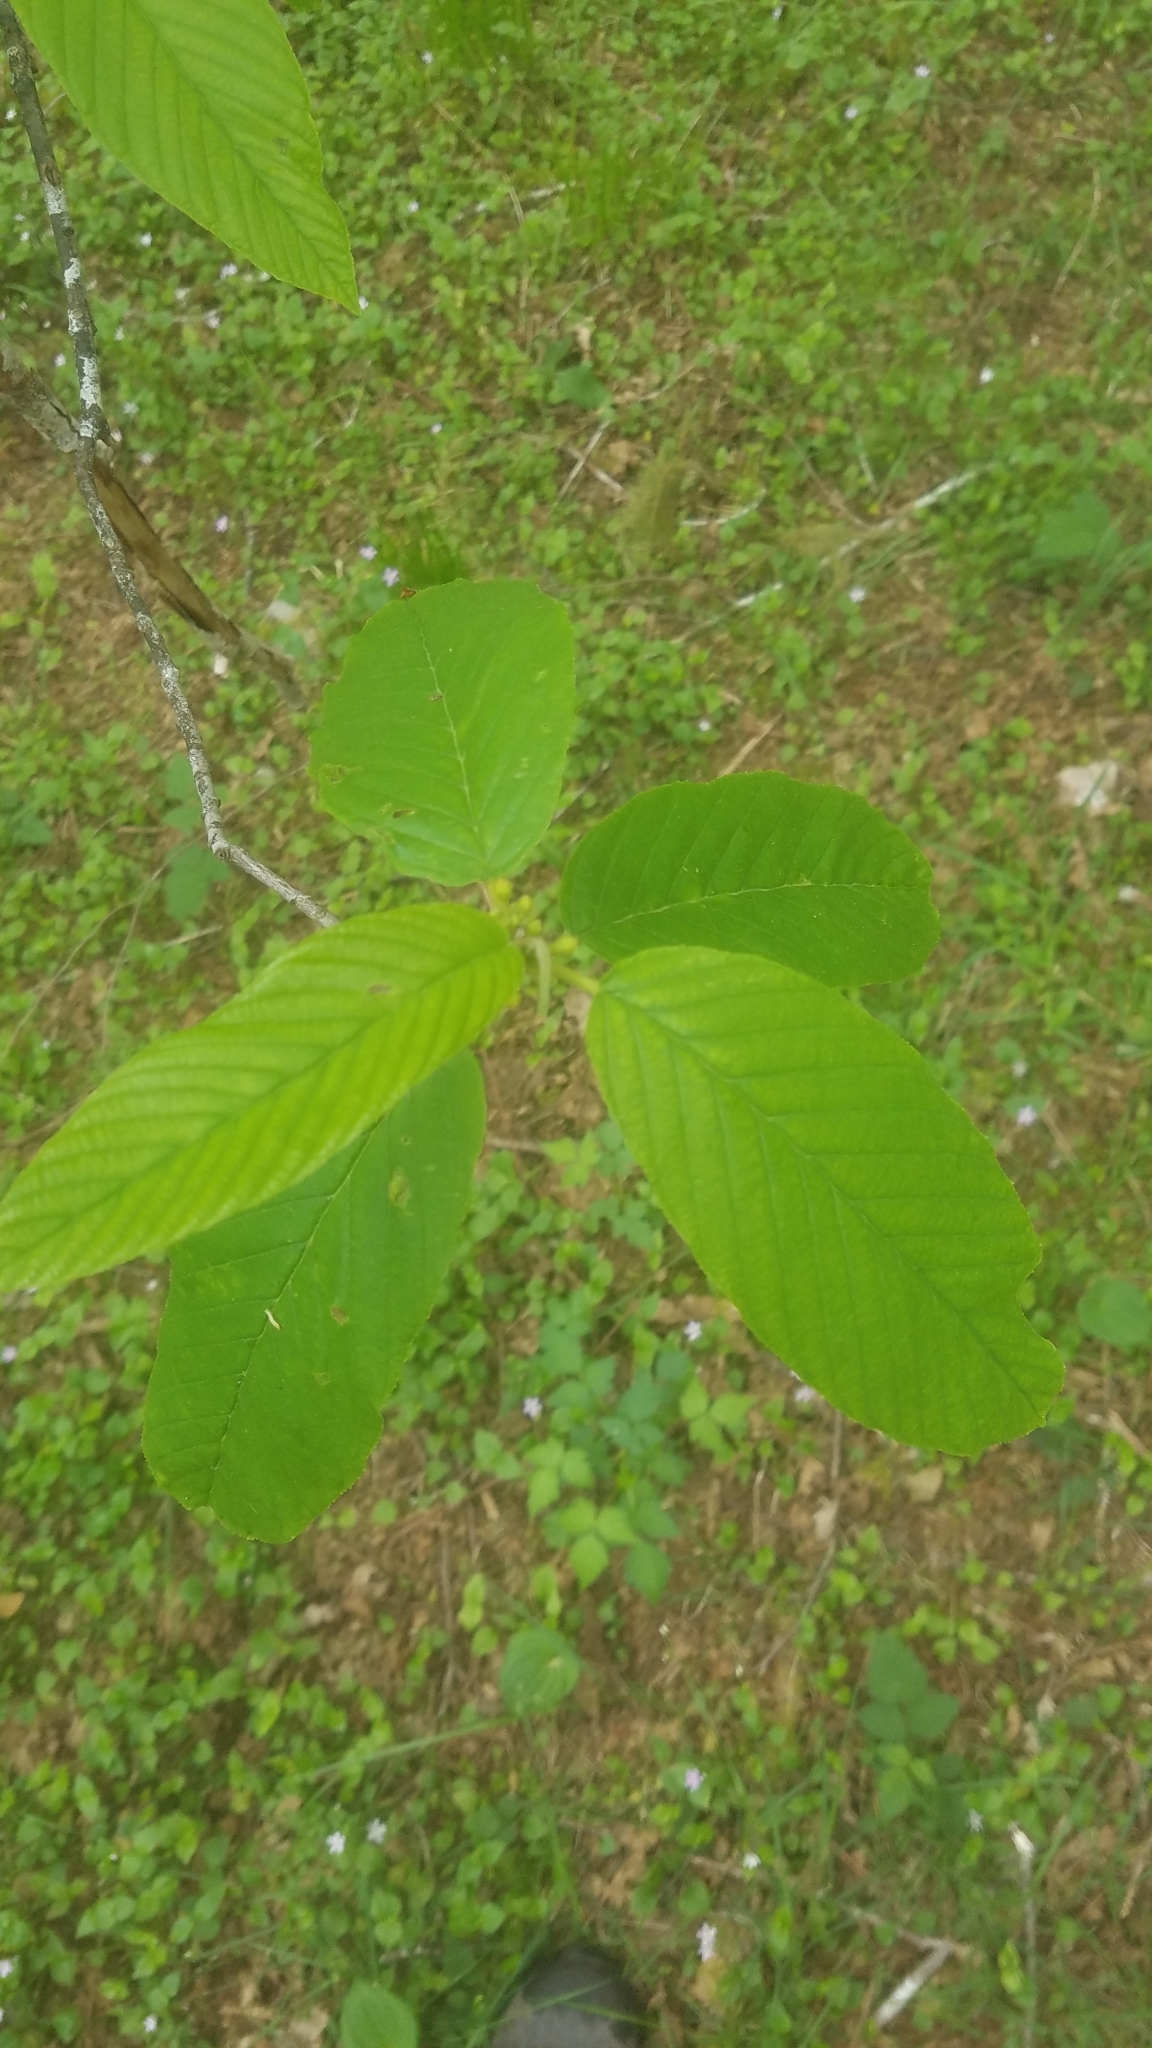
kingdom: Plantae
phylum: Tracheophyta
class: Magnoliopsida
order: Rosales
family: Rhamnaceae
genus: Frangula
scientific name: Frangula purshiana
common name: Cascara buckthorn
